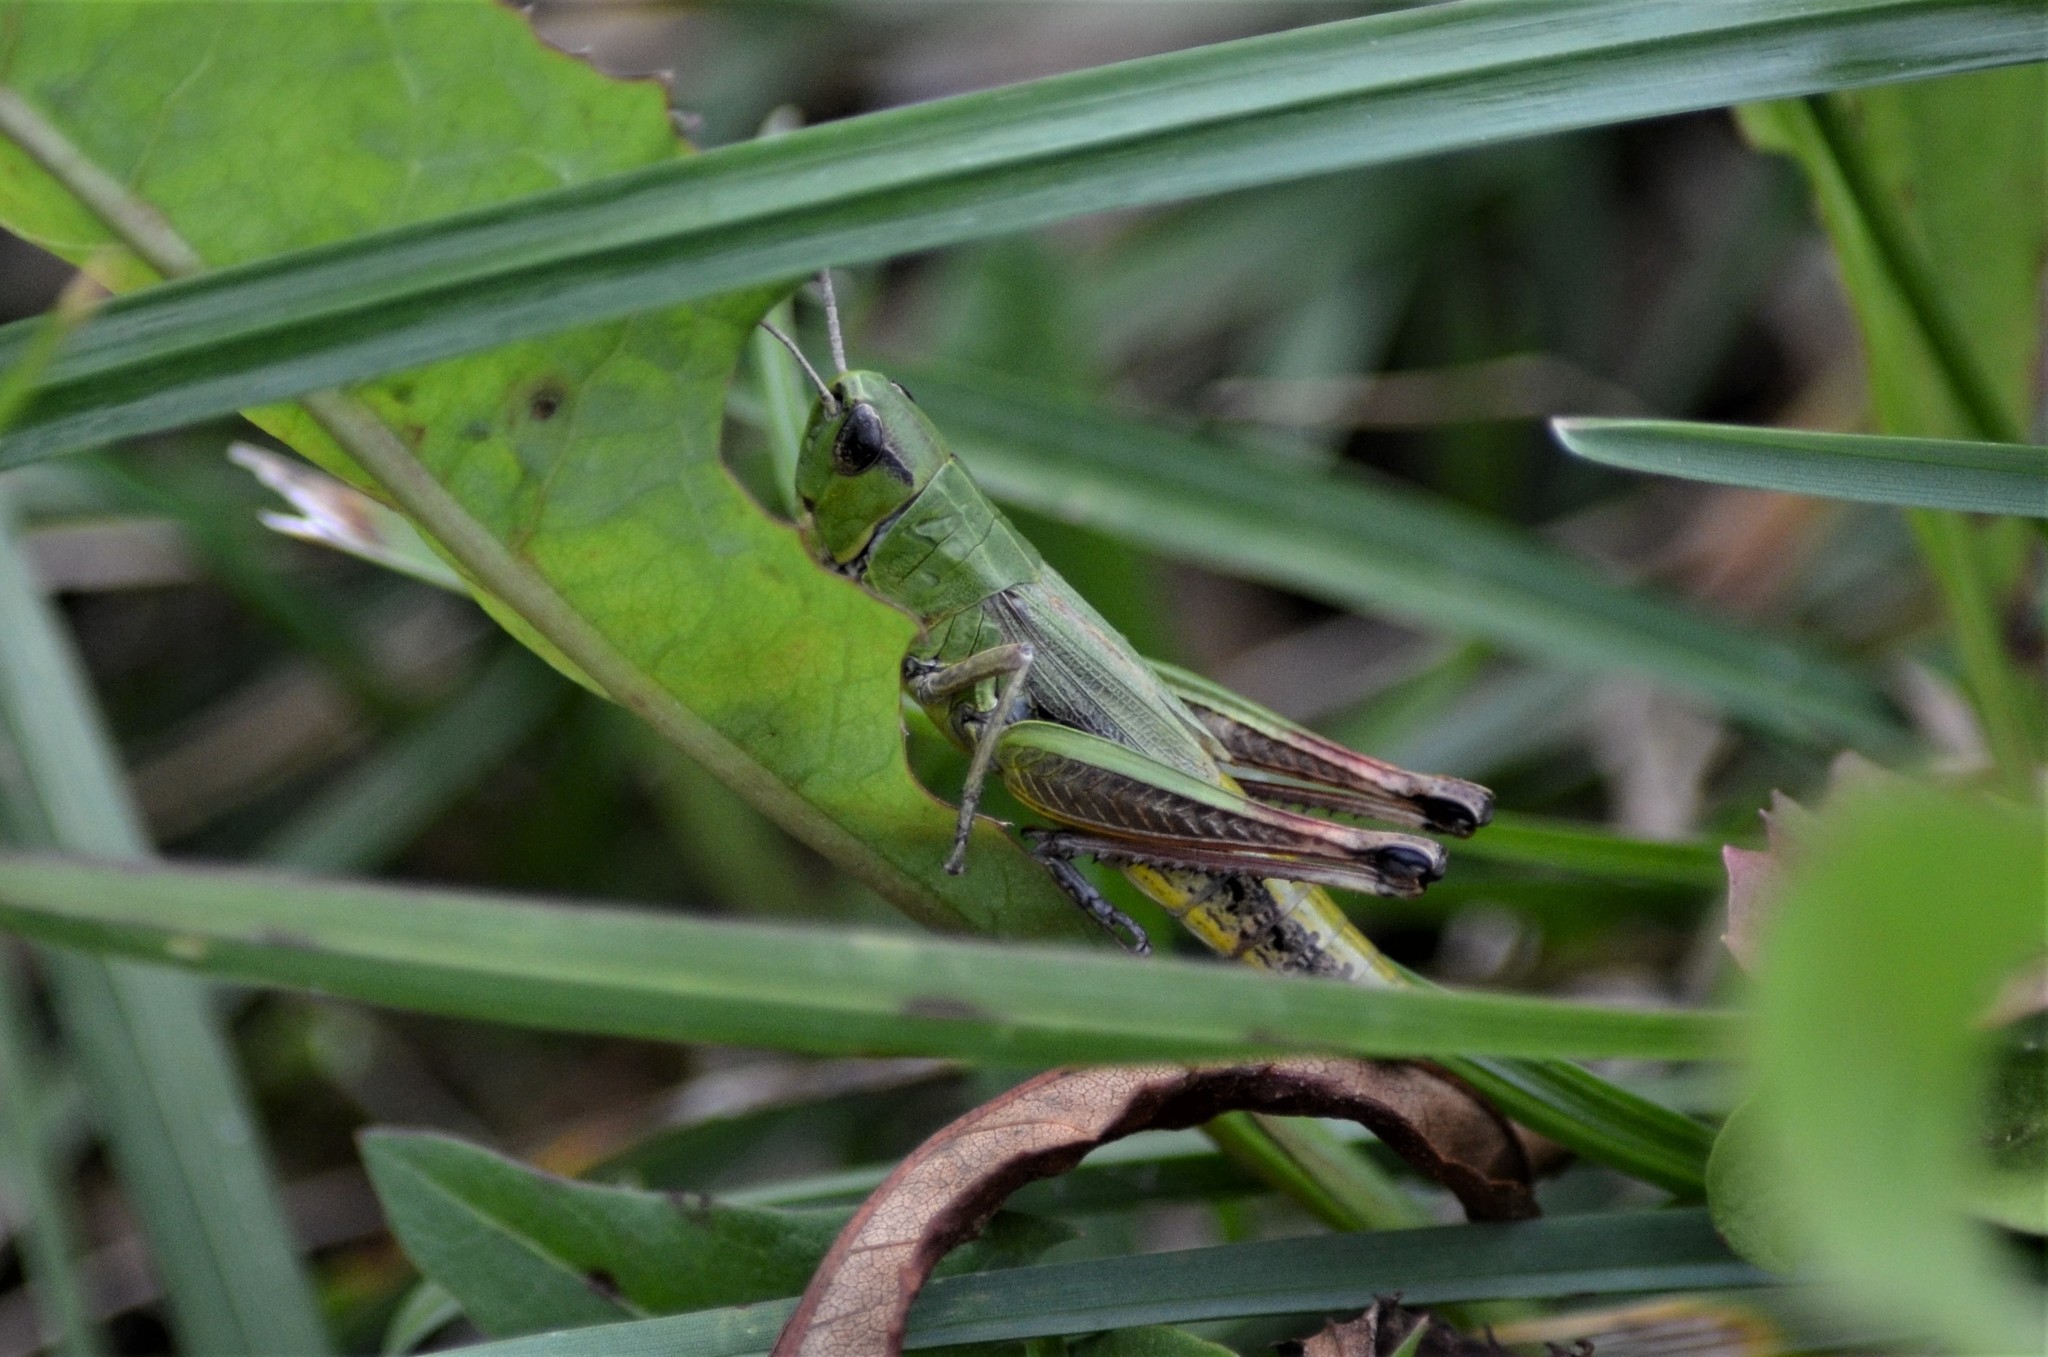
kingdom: Animalia
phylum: Arthropoda
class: Insecta
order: Orthoptera
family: Acrididae
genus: Pseudochorthippus
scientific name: Pseudochorthippus parallelus
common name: Meadow grasshopper
